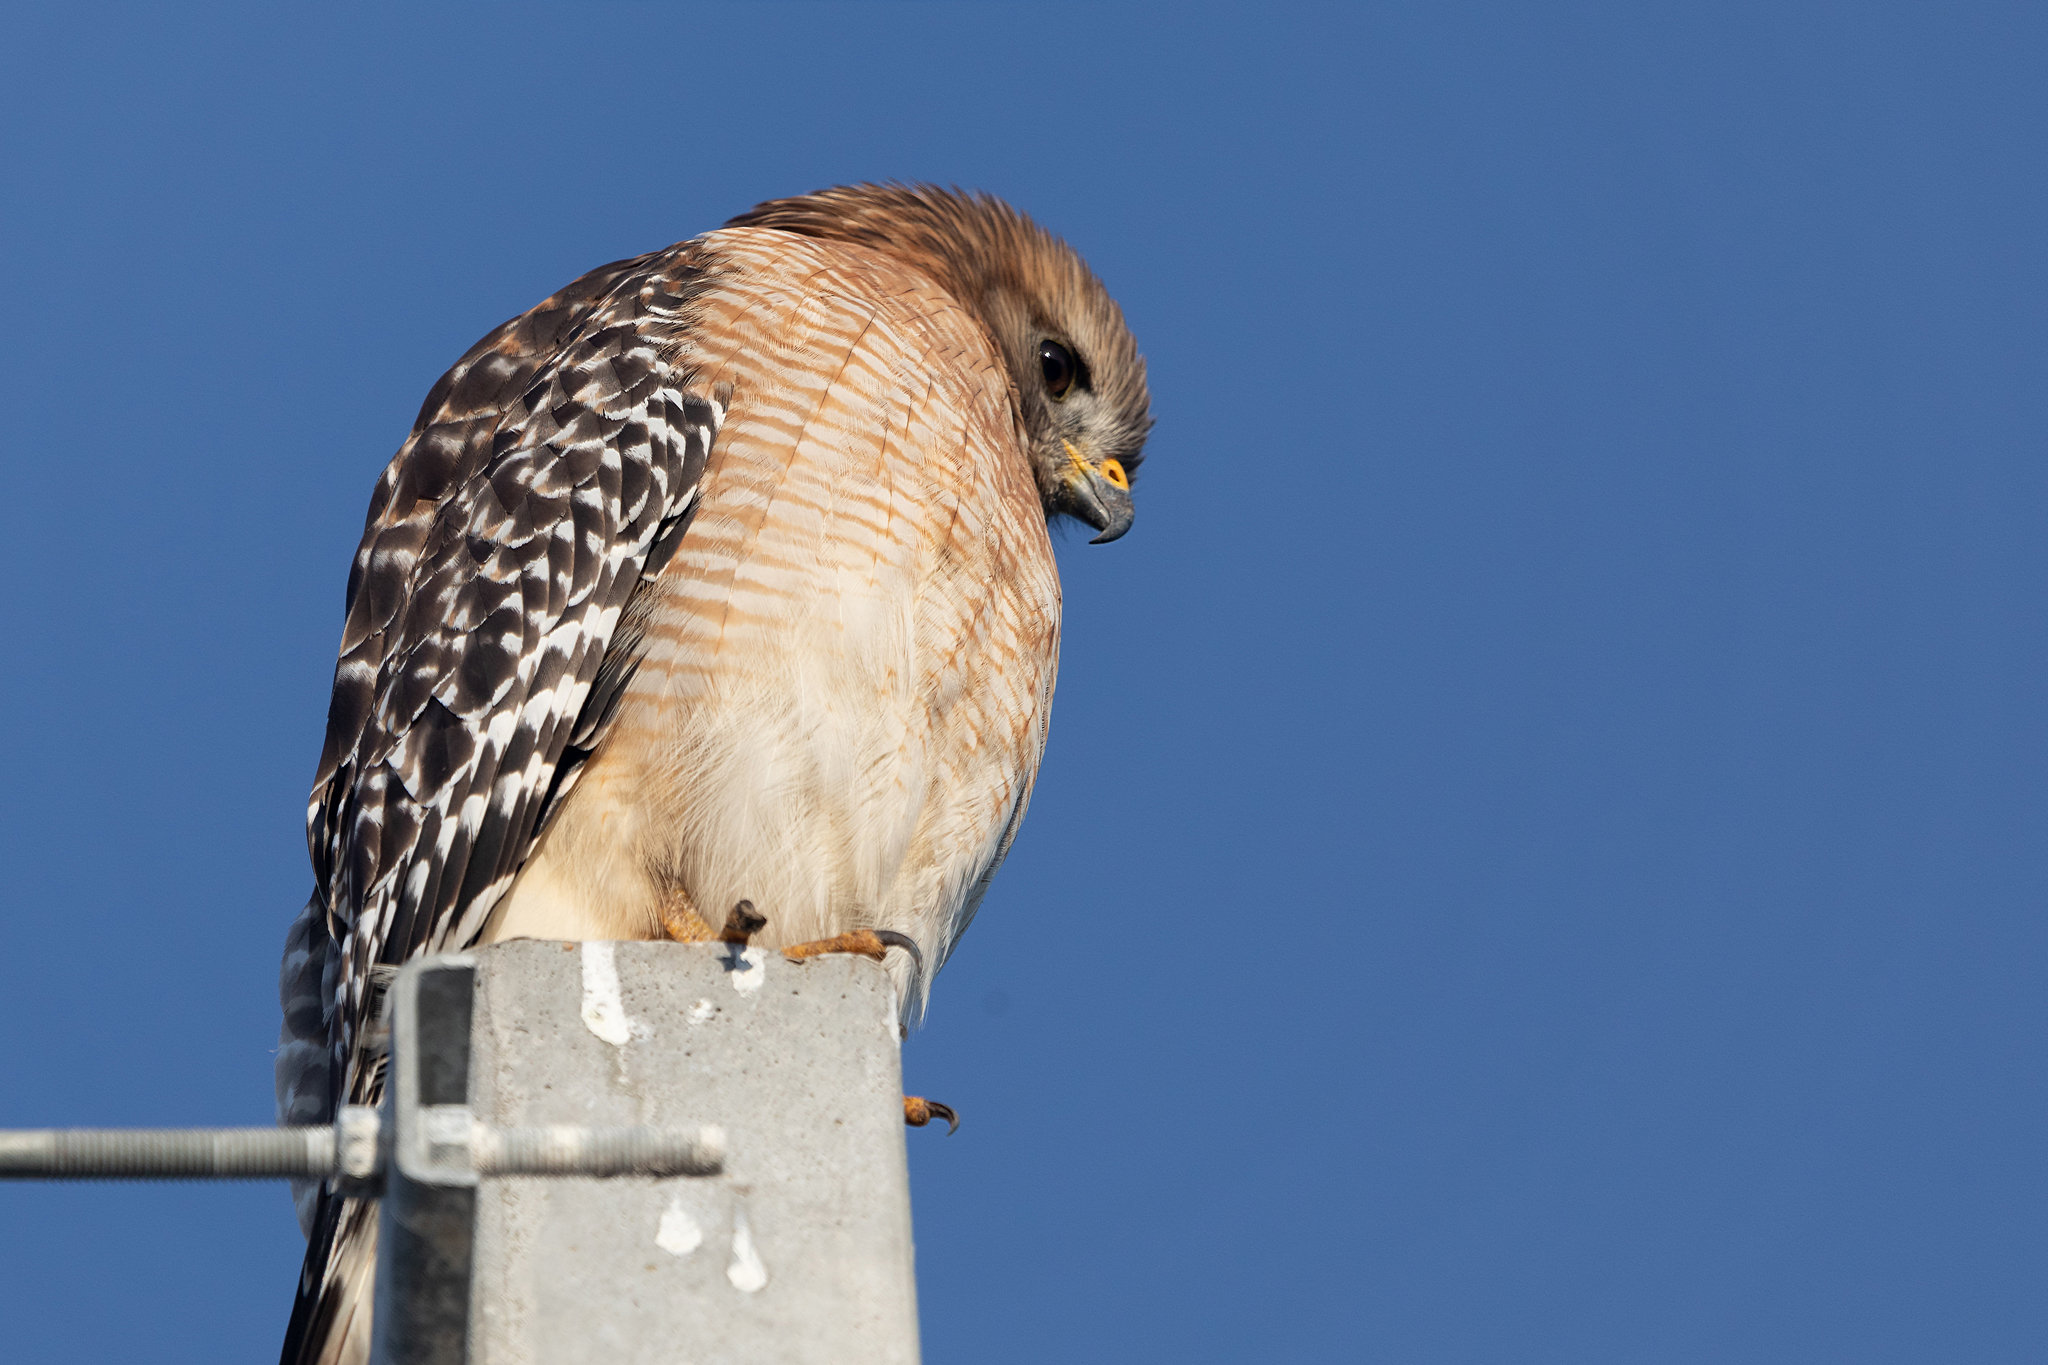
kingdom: Animalia
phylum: Chordata
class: Aves
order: Accipitriformes
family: Accipitridae
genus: Buteo
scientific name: Buteo lineatus
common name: Red-shouldered hawk
